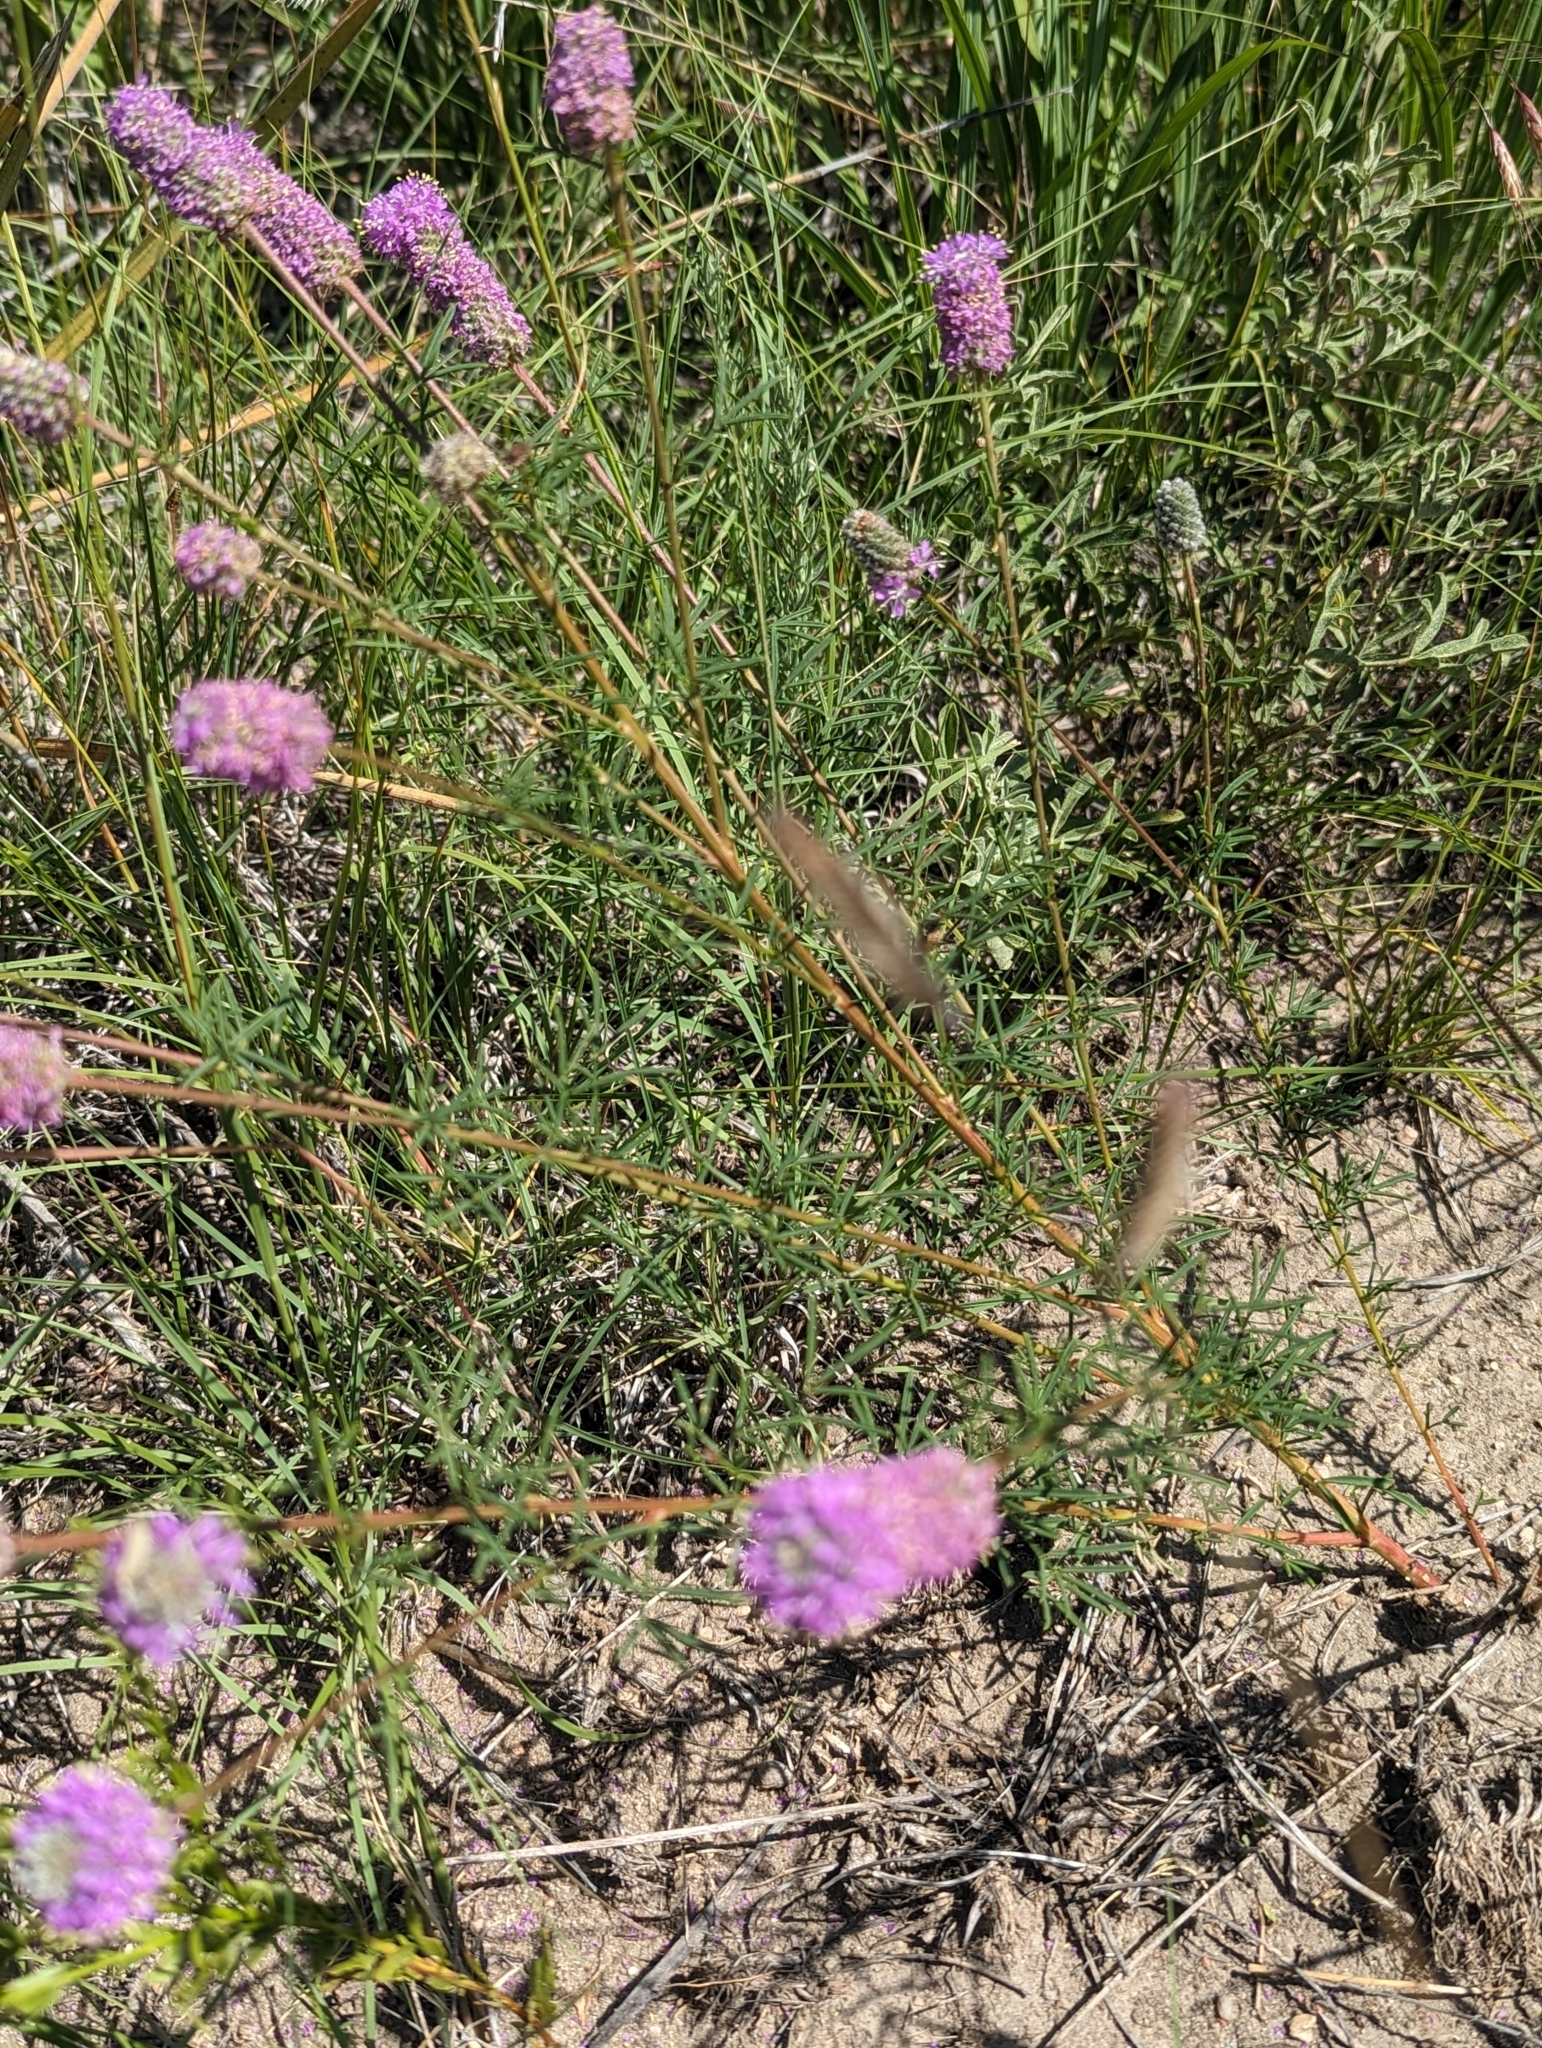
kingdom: Plantae
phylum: Tracheophyta
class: Magnoliopsida
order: Fabales
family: Fabaceae
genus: Dalea
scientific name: Dalea purpurea
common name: Purple prairie-clover
